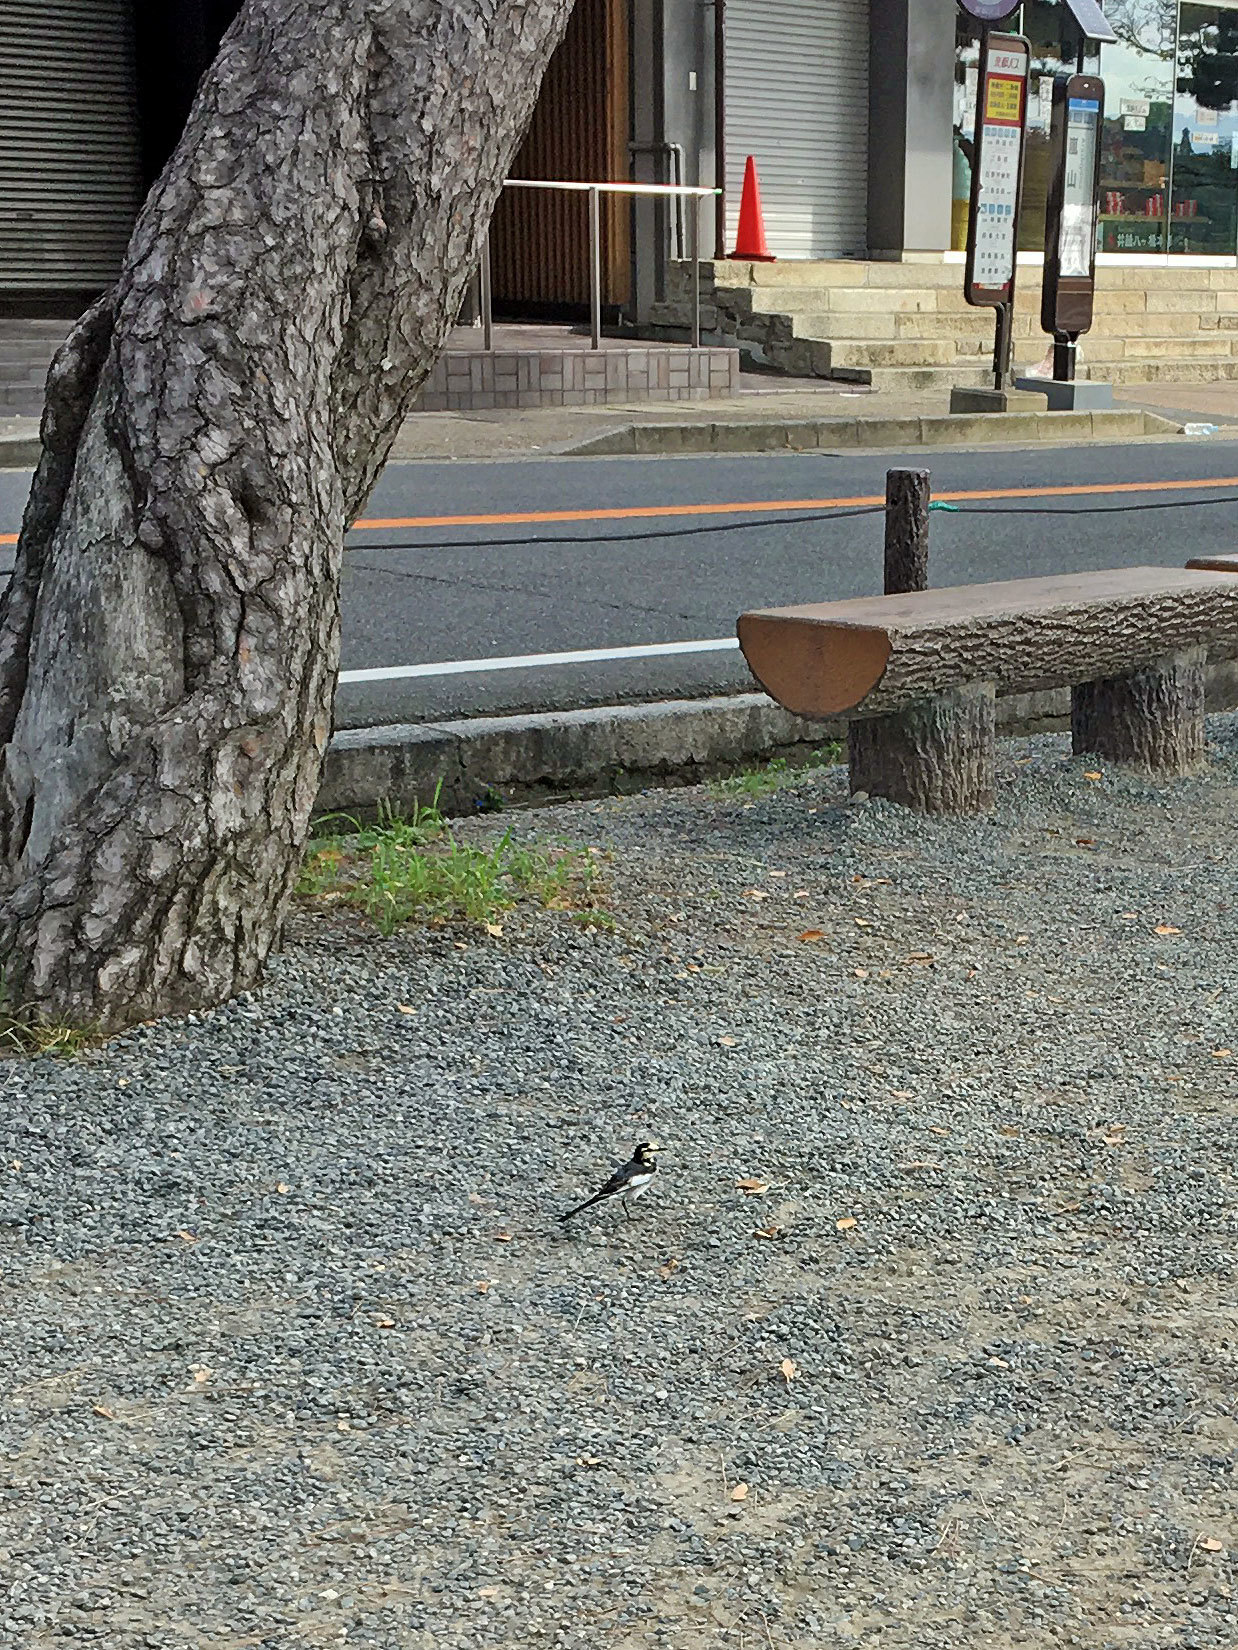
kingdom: Animalia
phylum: Chordata
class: Aves
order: Passeriformes
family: Motacillidae
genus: Motacilla
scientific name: Motacilla alba
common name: White wagtail
